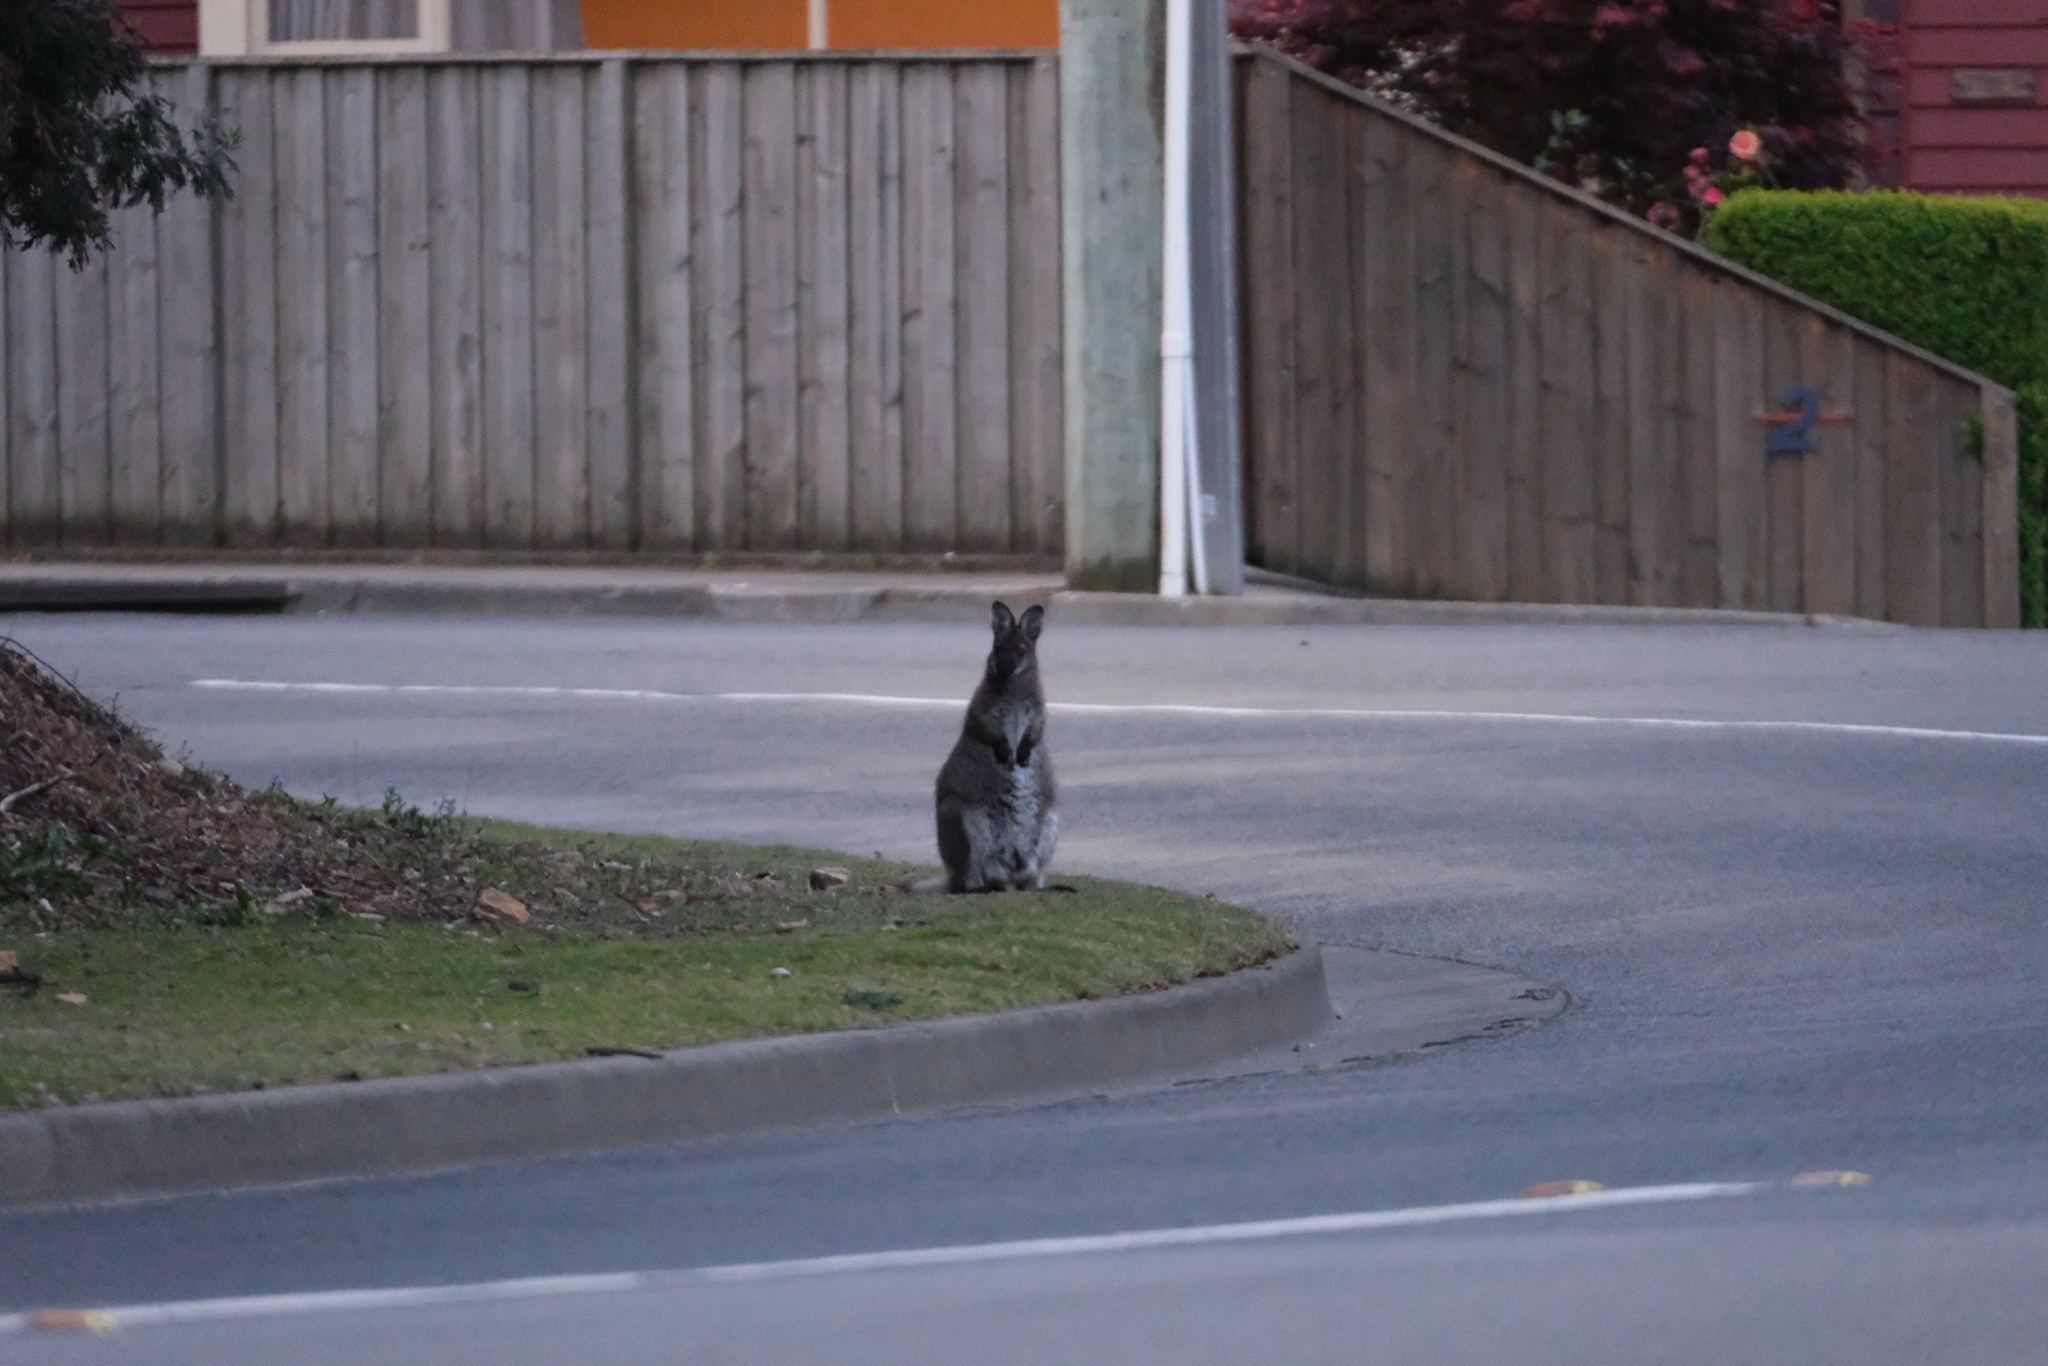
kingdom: Animalia
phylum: Chordata
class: Mammalia
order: Diprotodontia
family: Macropodidae
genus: Notamacropus
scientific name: Notamacropus rufogriseus
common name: Red-necked wallaby
